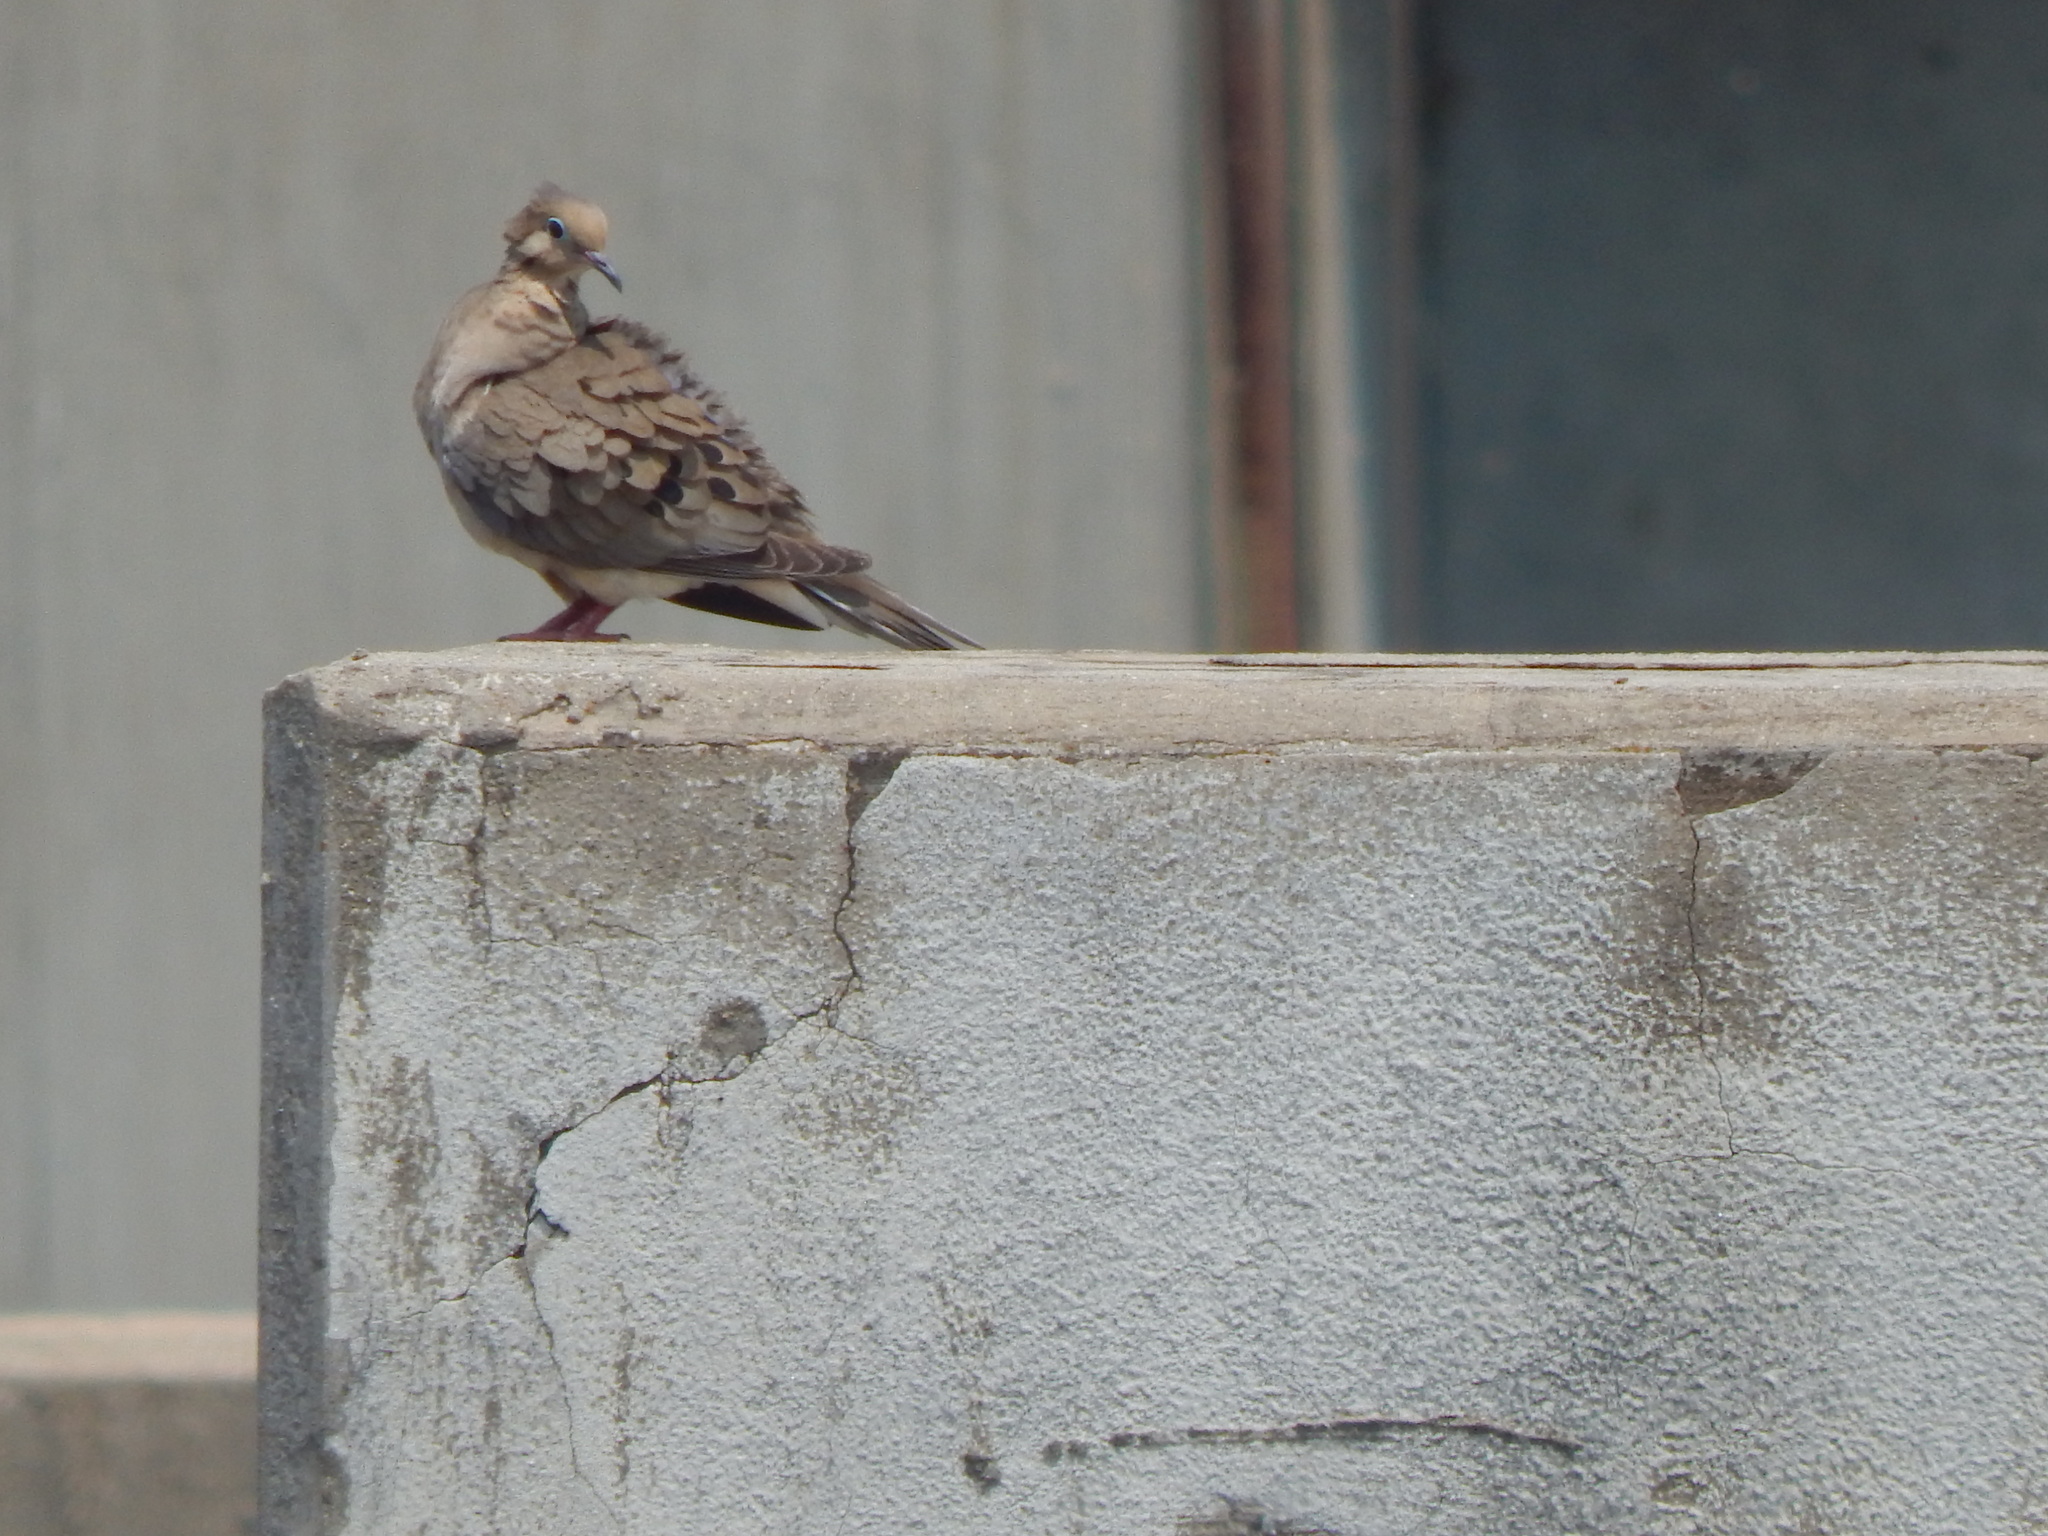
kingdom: Animalia
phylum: Chordata
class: Aves
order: Columbiformes
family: Columbidae
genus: Zenaida
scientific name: Zenaida macroura
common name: Mourning dove
